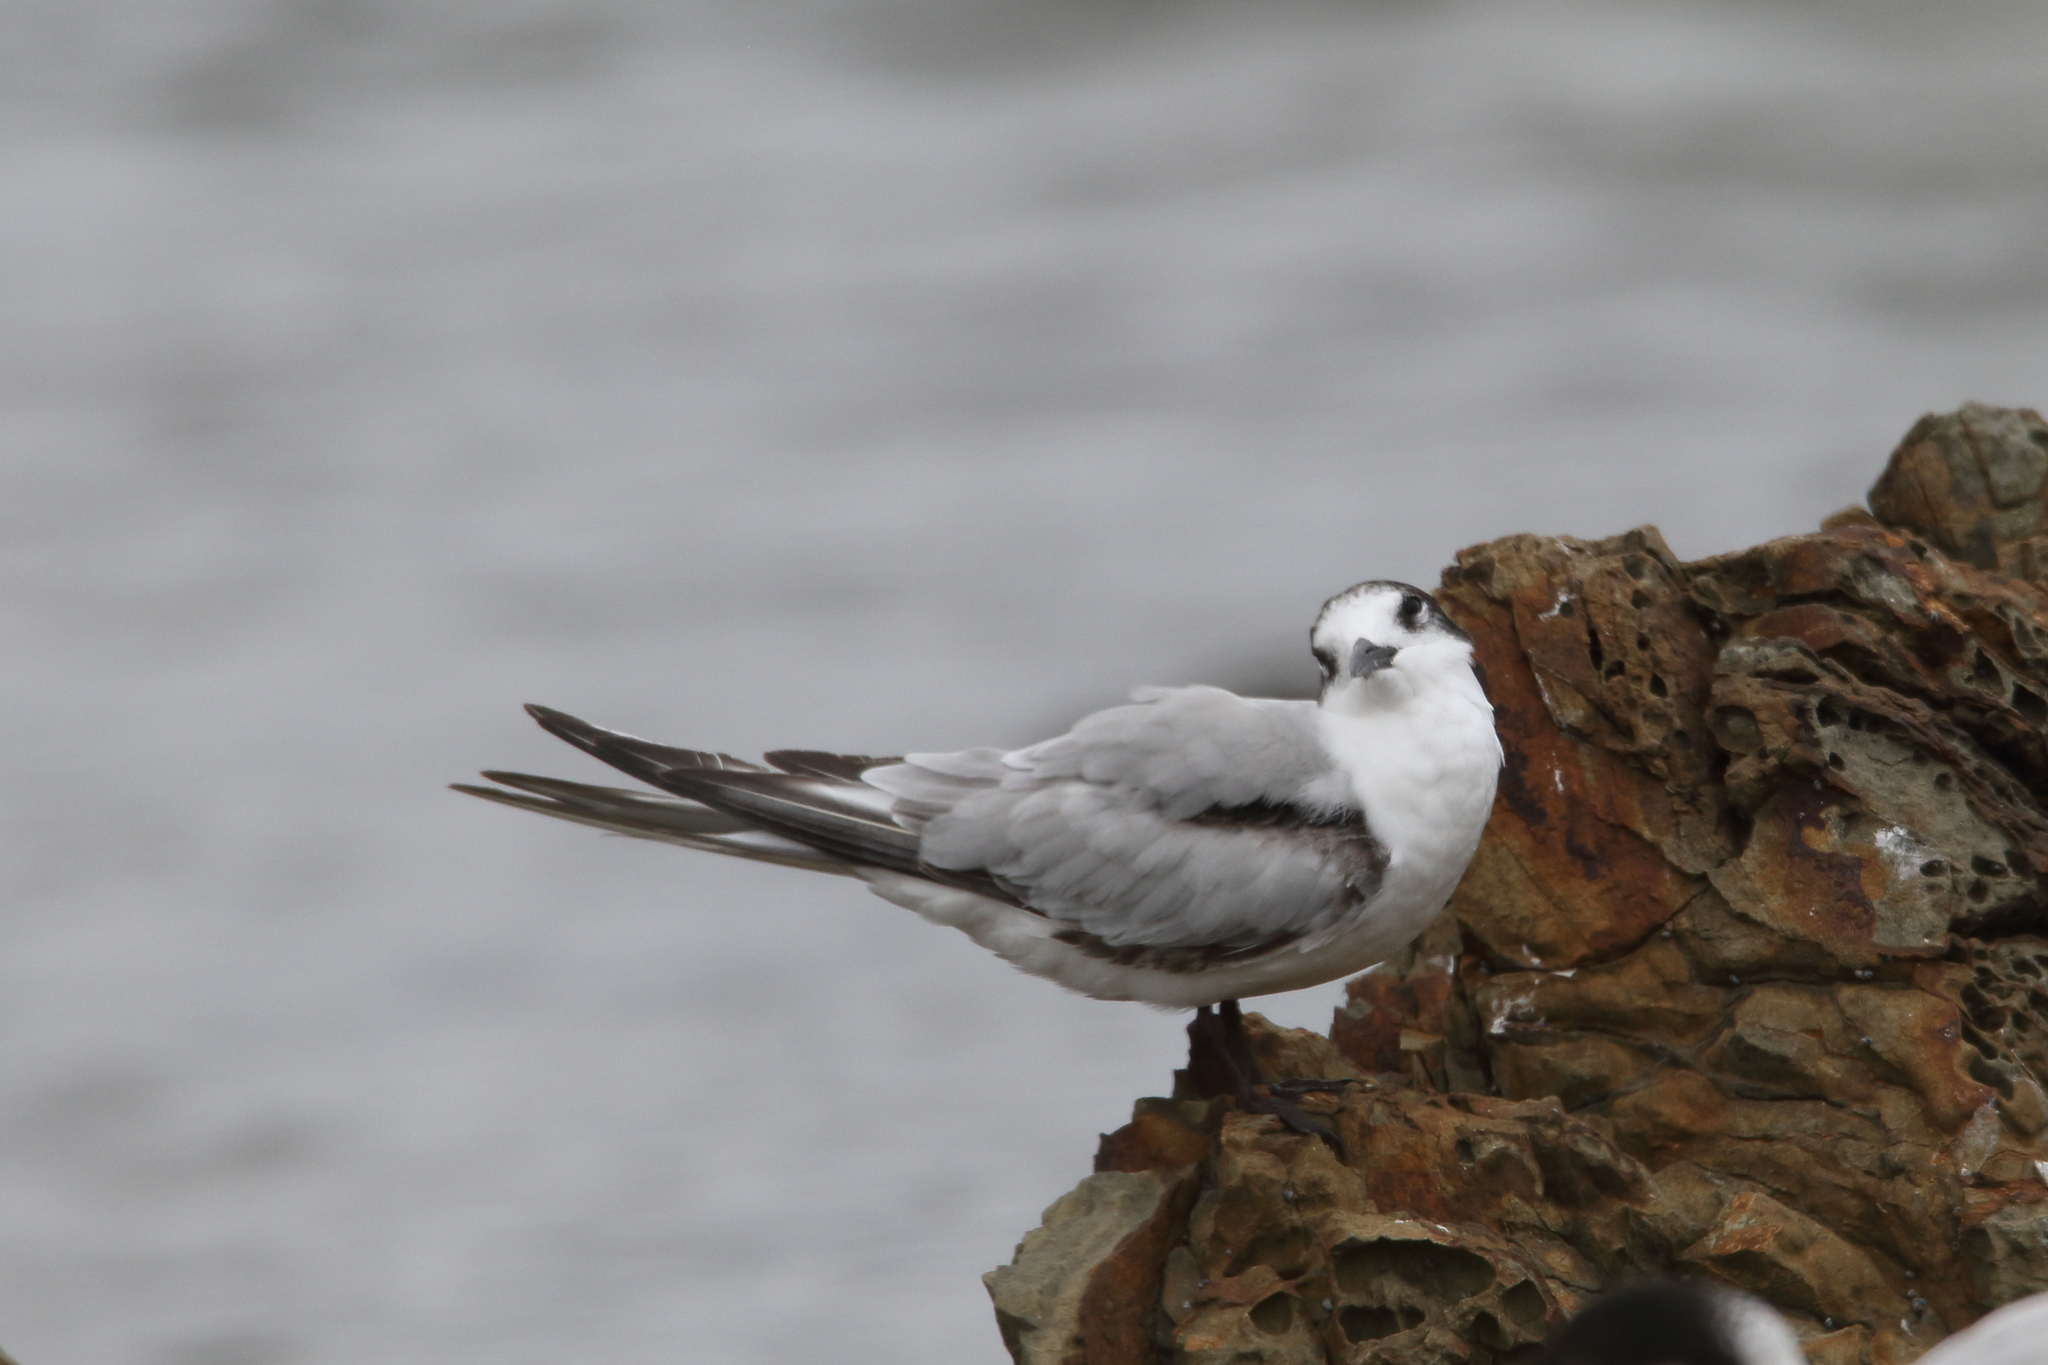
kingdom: Animalia
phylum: Chordata
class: Aves
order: Charadriiformes
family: Laridae
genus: Sterna
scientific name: Sterna hirundo
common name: Common tern
